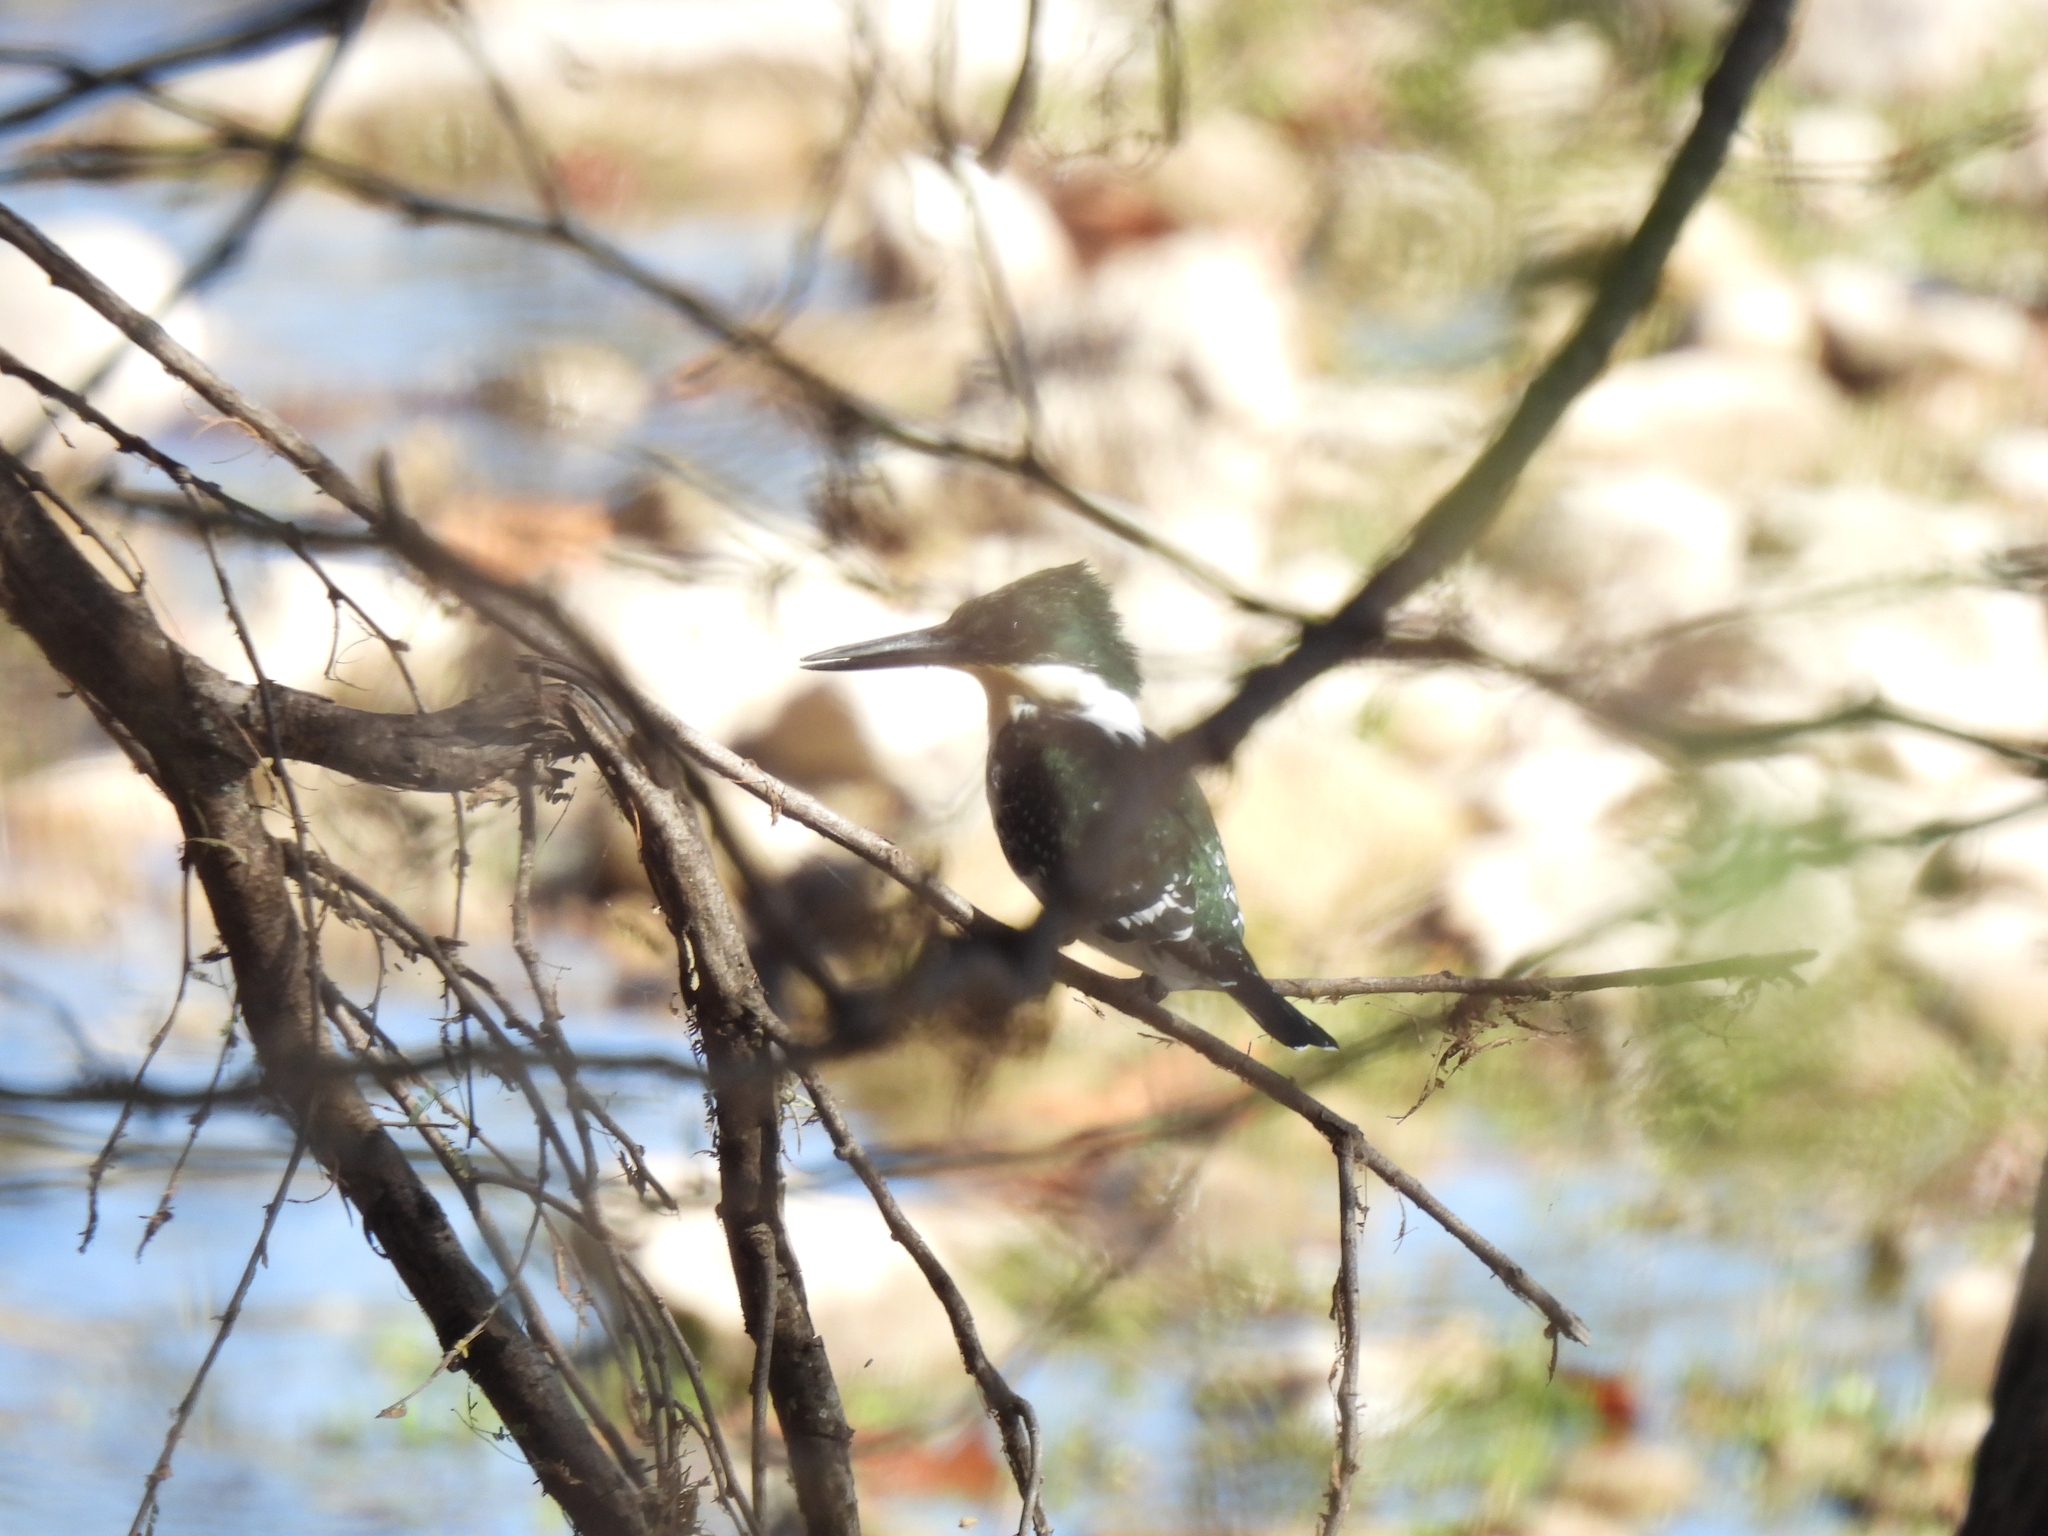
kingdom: Animalia
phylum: Chordata
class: Aves
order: Coraciiformes
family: Alcedinidae
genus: Chloroceryle
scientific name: Chloroceryle americana
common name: Green kingfisher
